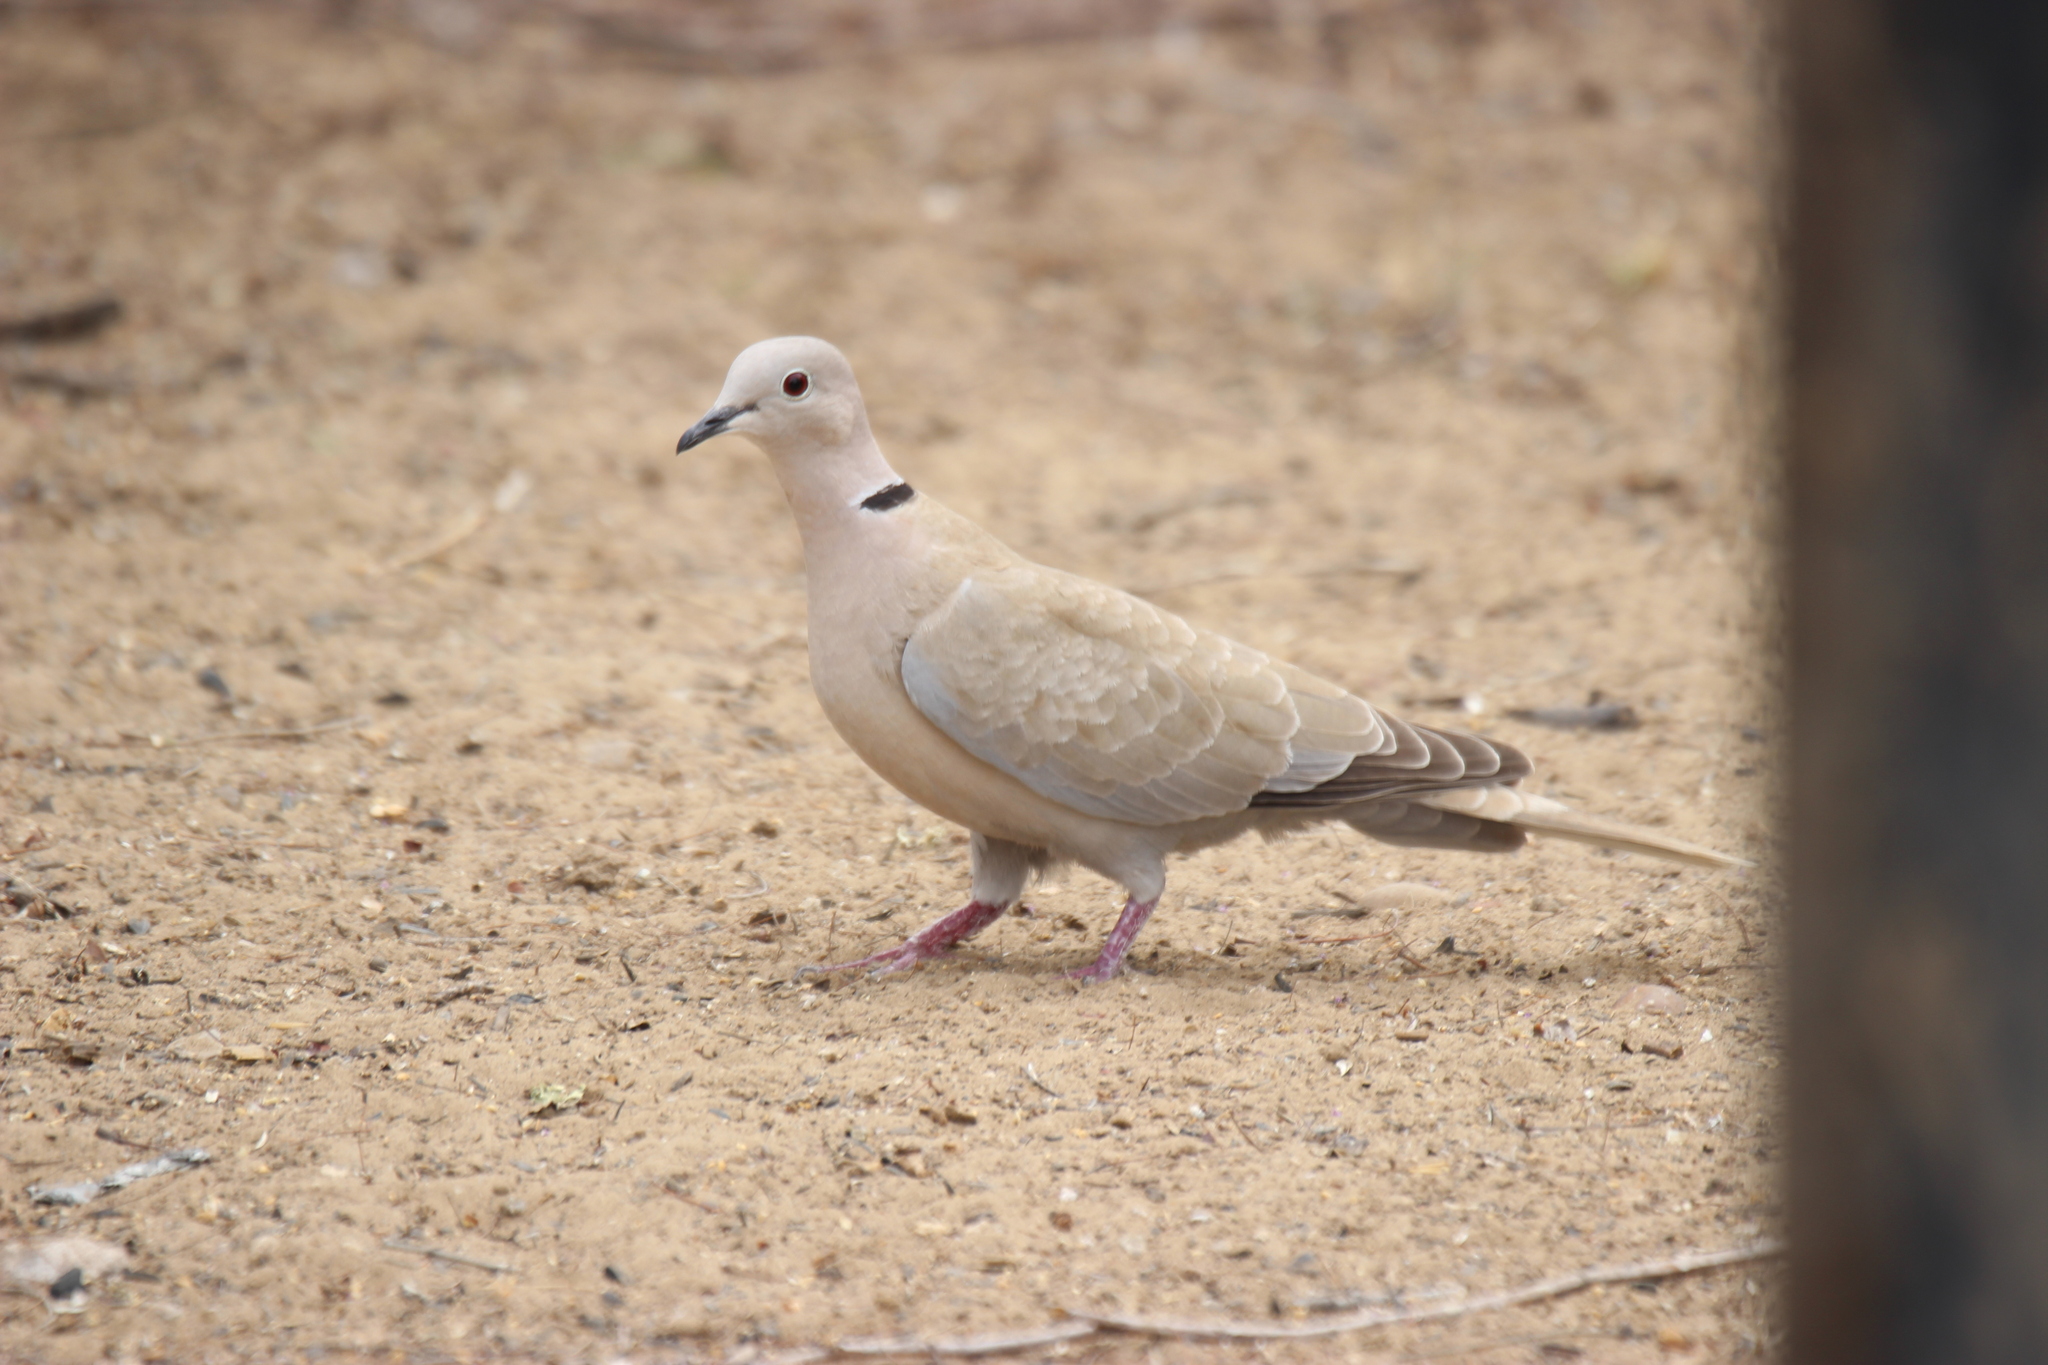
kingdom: Animalia
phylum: Chordata
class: Aves
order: Columbiformes
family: Columbidae
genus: Streptopelia
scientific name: Streptopelia decaocto
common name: Eurasian collared dove
